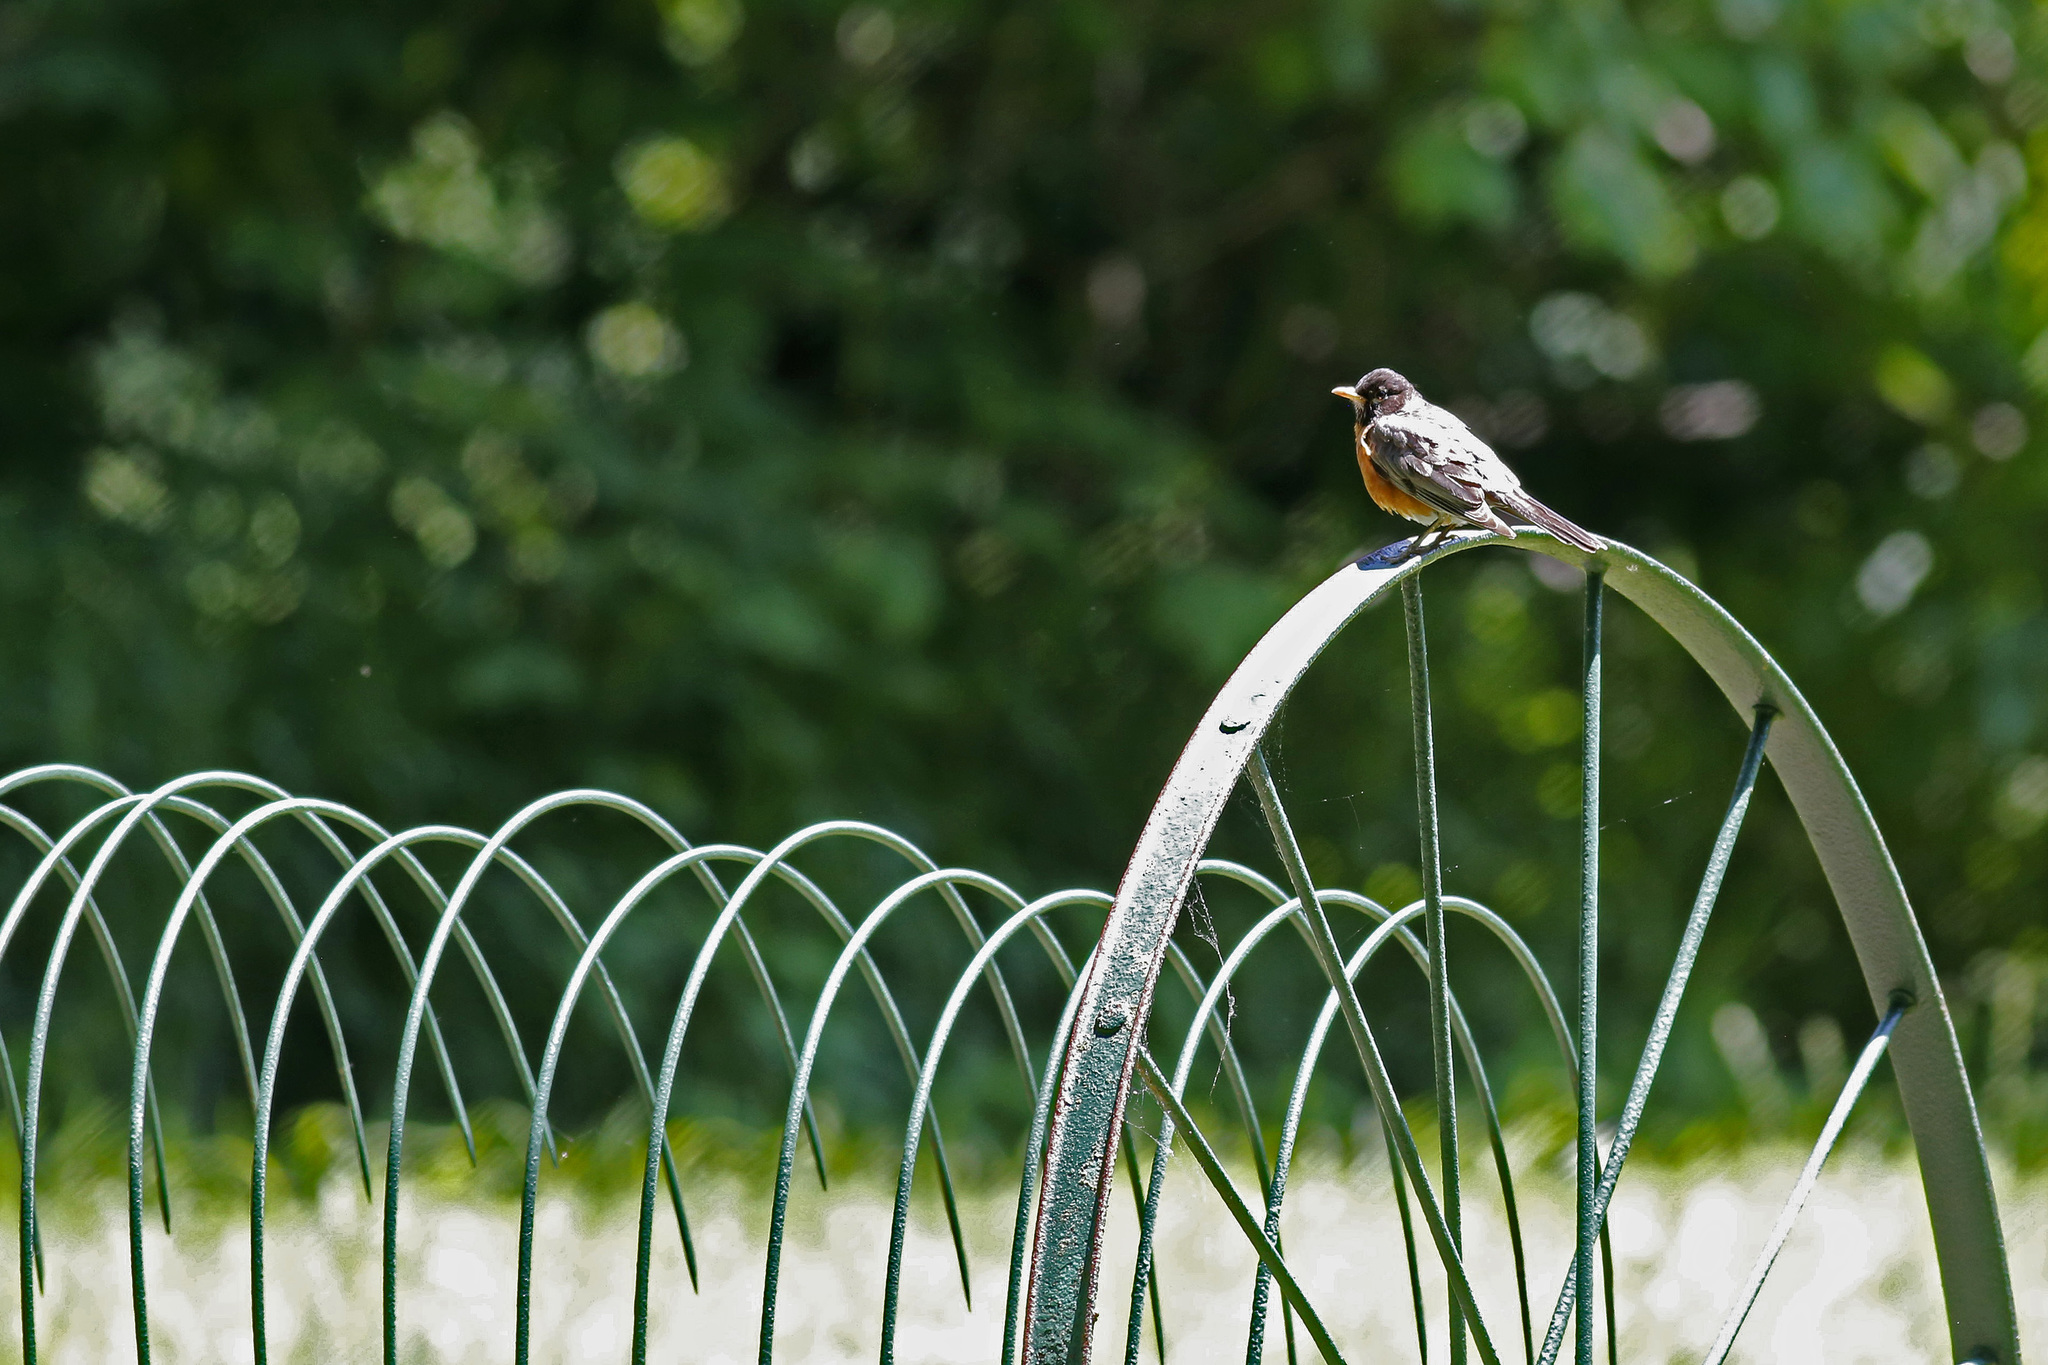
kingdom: Animalia
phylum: Chordata
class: Aves
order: Passeriformes
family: Turdidae
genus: Turdus
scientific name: Turdus migratorius
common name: American robin
